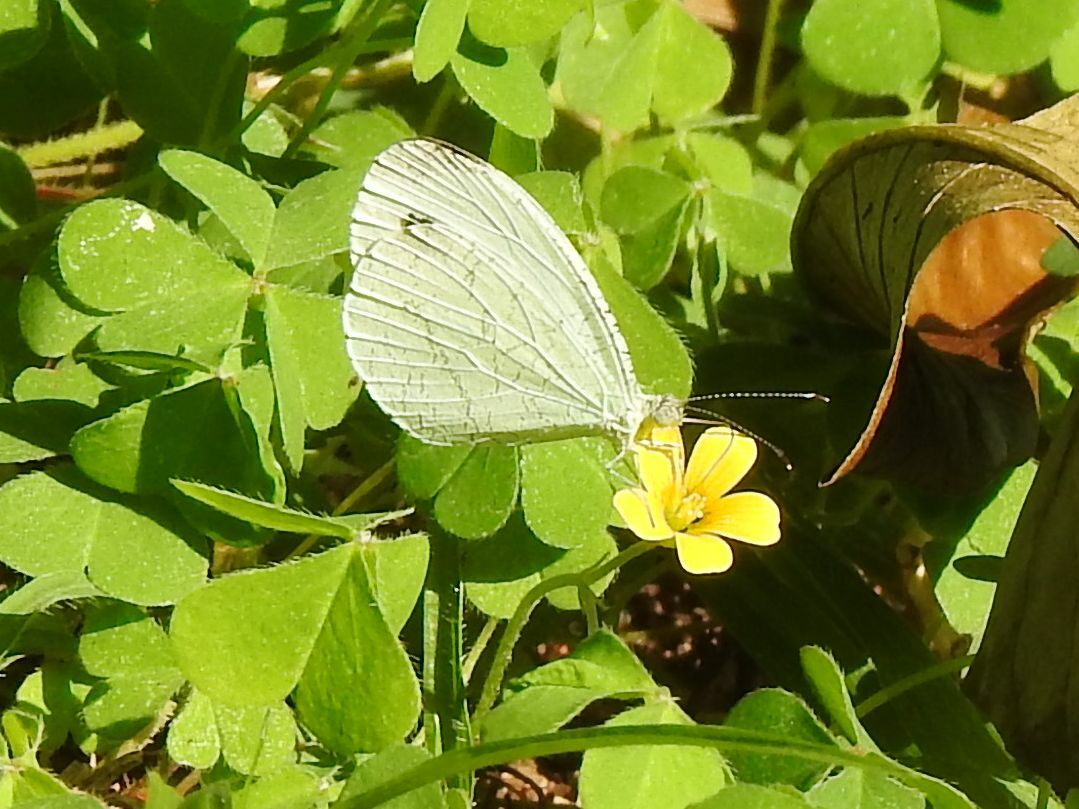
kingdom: Animalia
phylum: Arthropoda
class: Insecta
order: Lepidoptera
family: Pieridae
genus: Leptosia
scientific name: Leptosia alcesta
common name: African wood white
